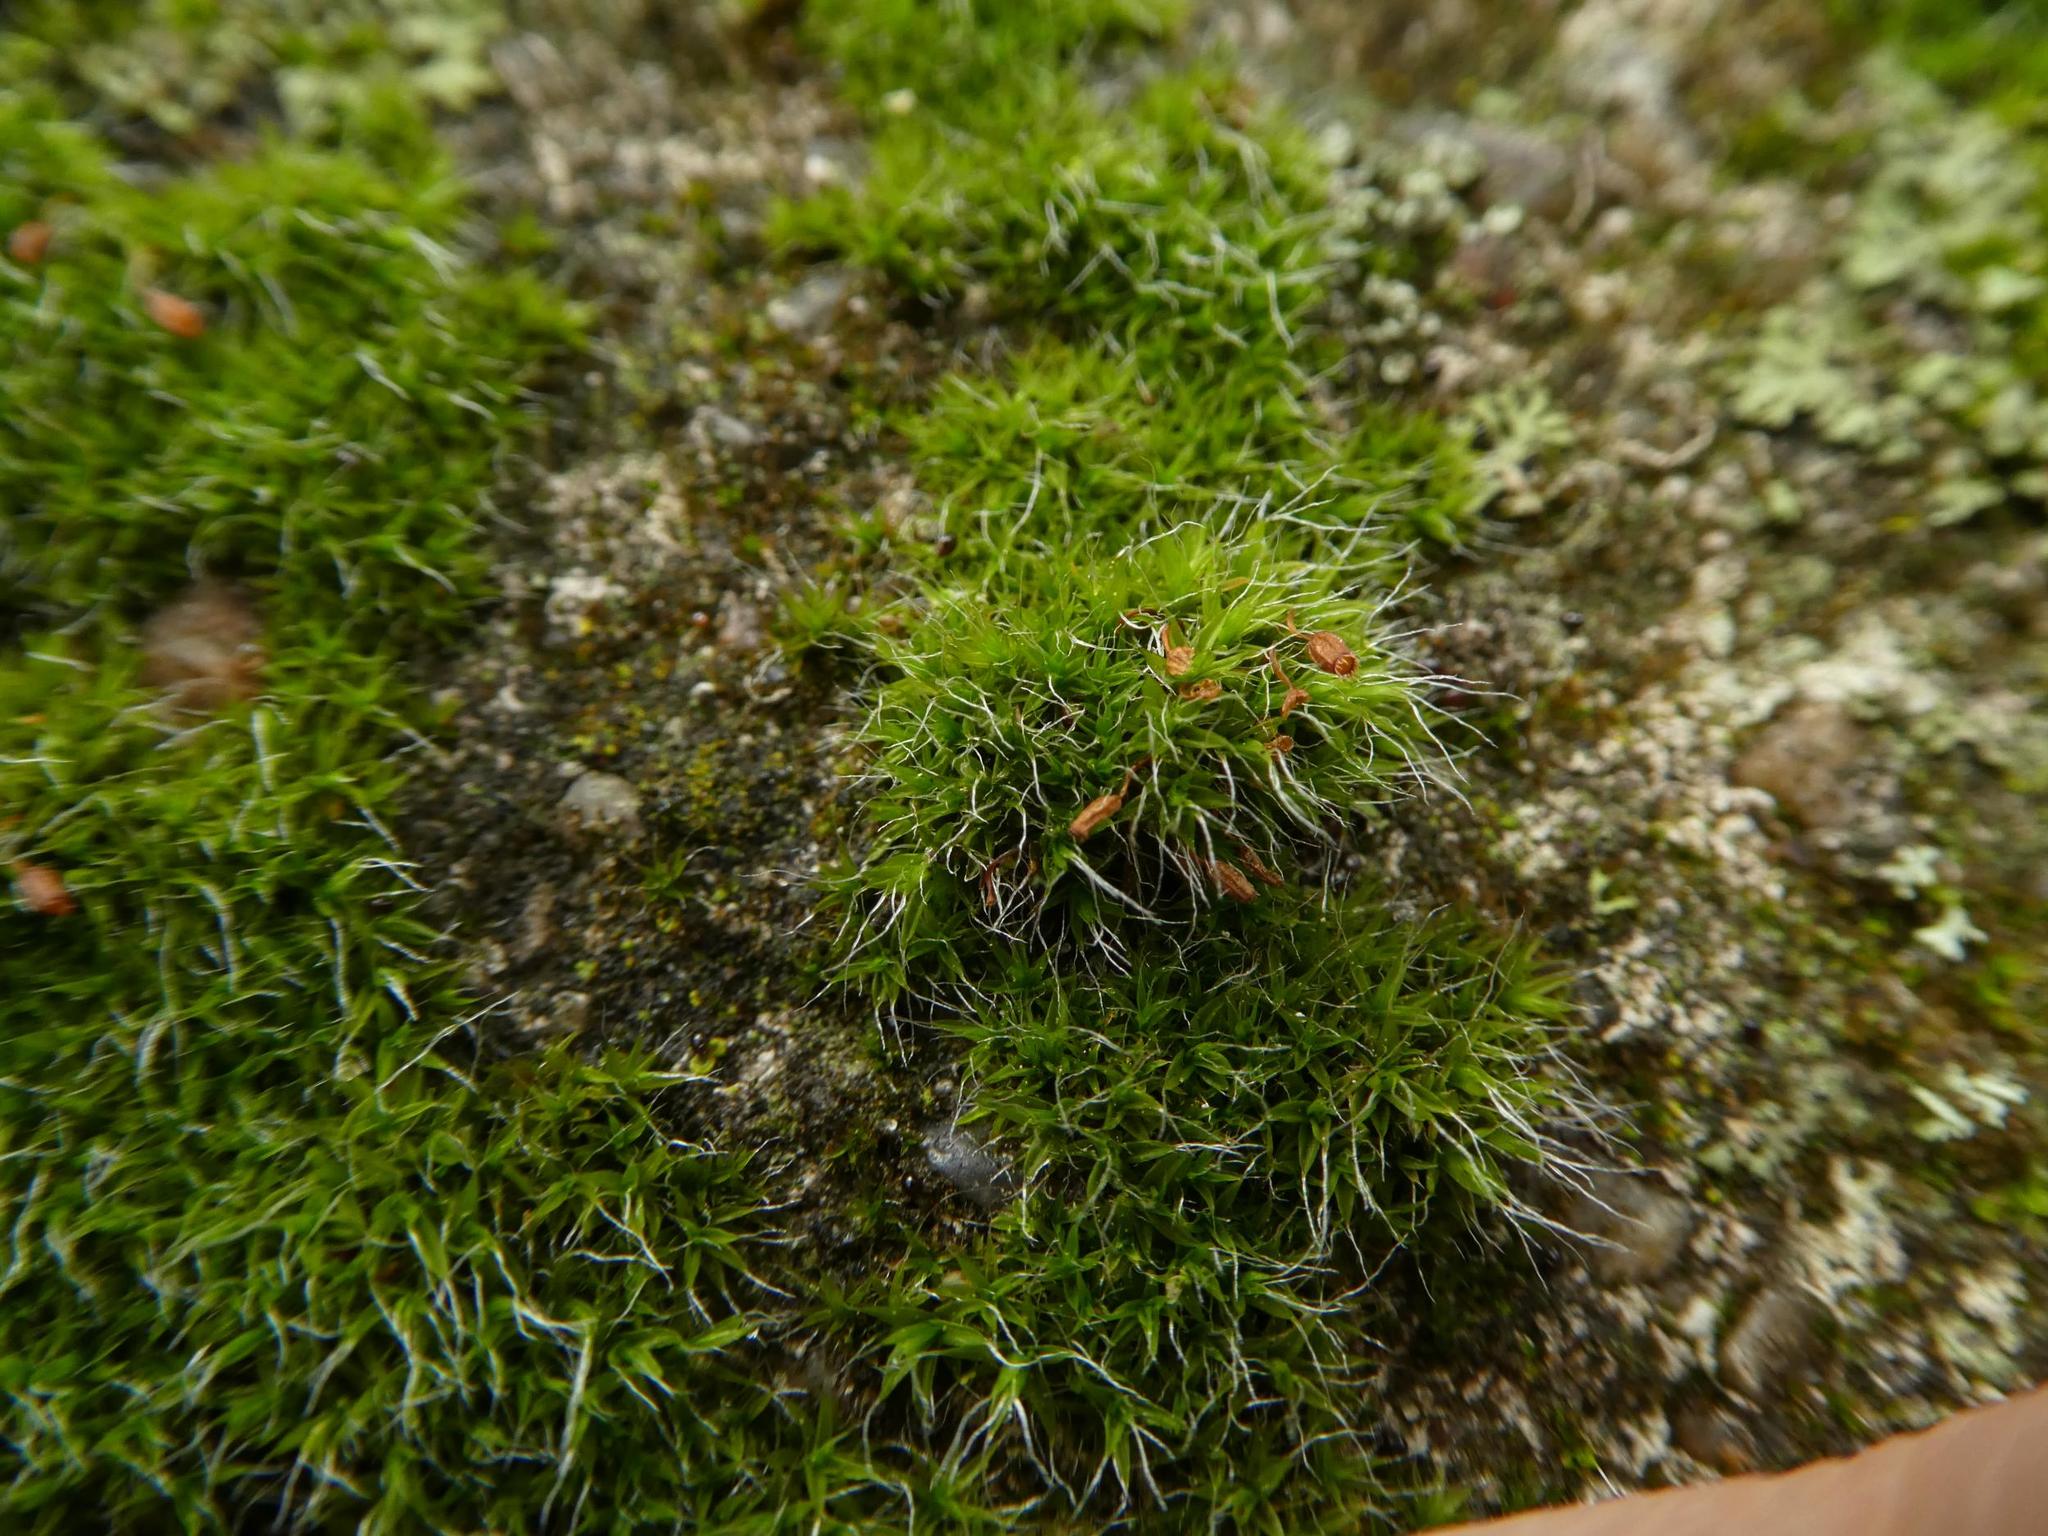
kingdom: Plantae
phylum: Bryophyta
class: Bryopsida
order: Grimmiales
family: Grimmiaceae
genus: Grimmia
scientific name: Grimmia pulvinata
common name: Grey-cushioned grimmia
